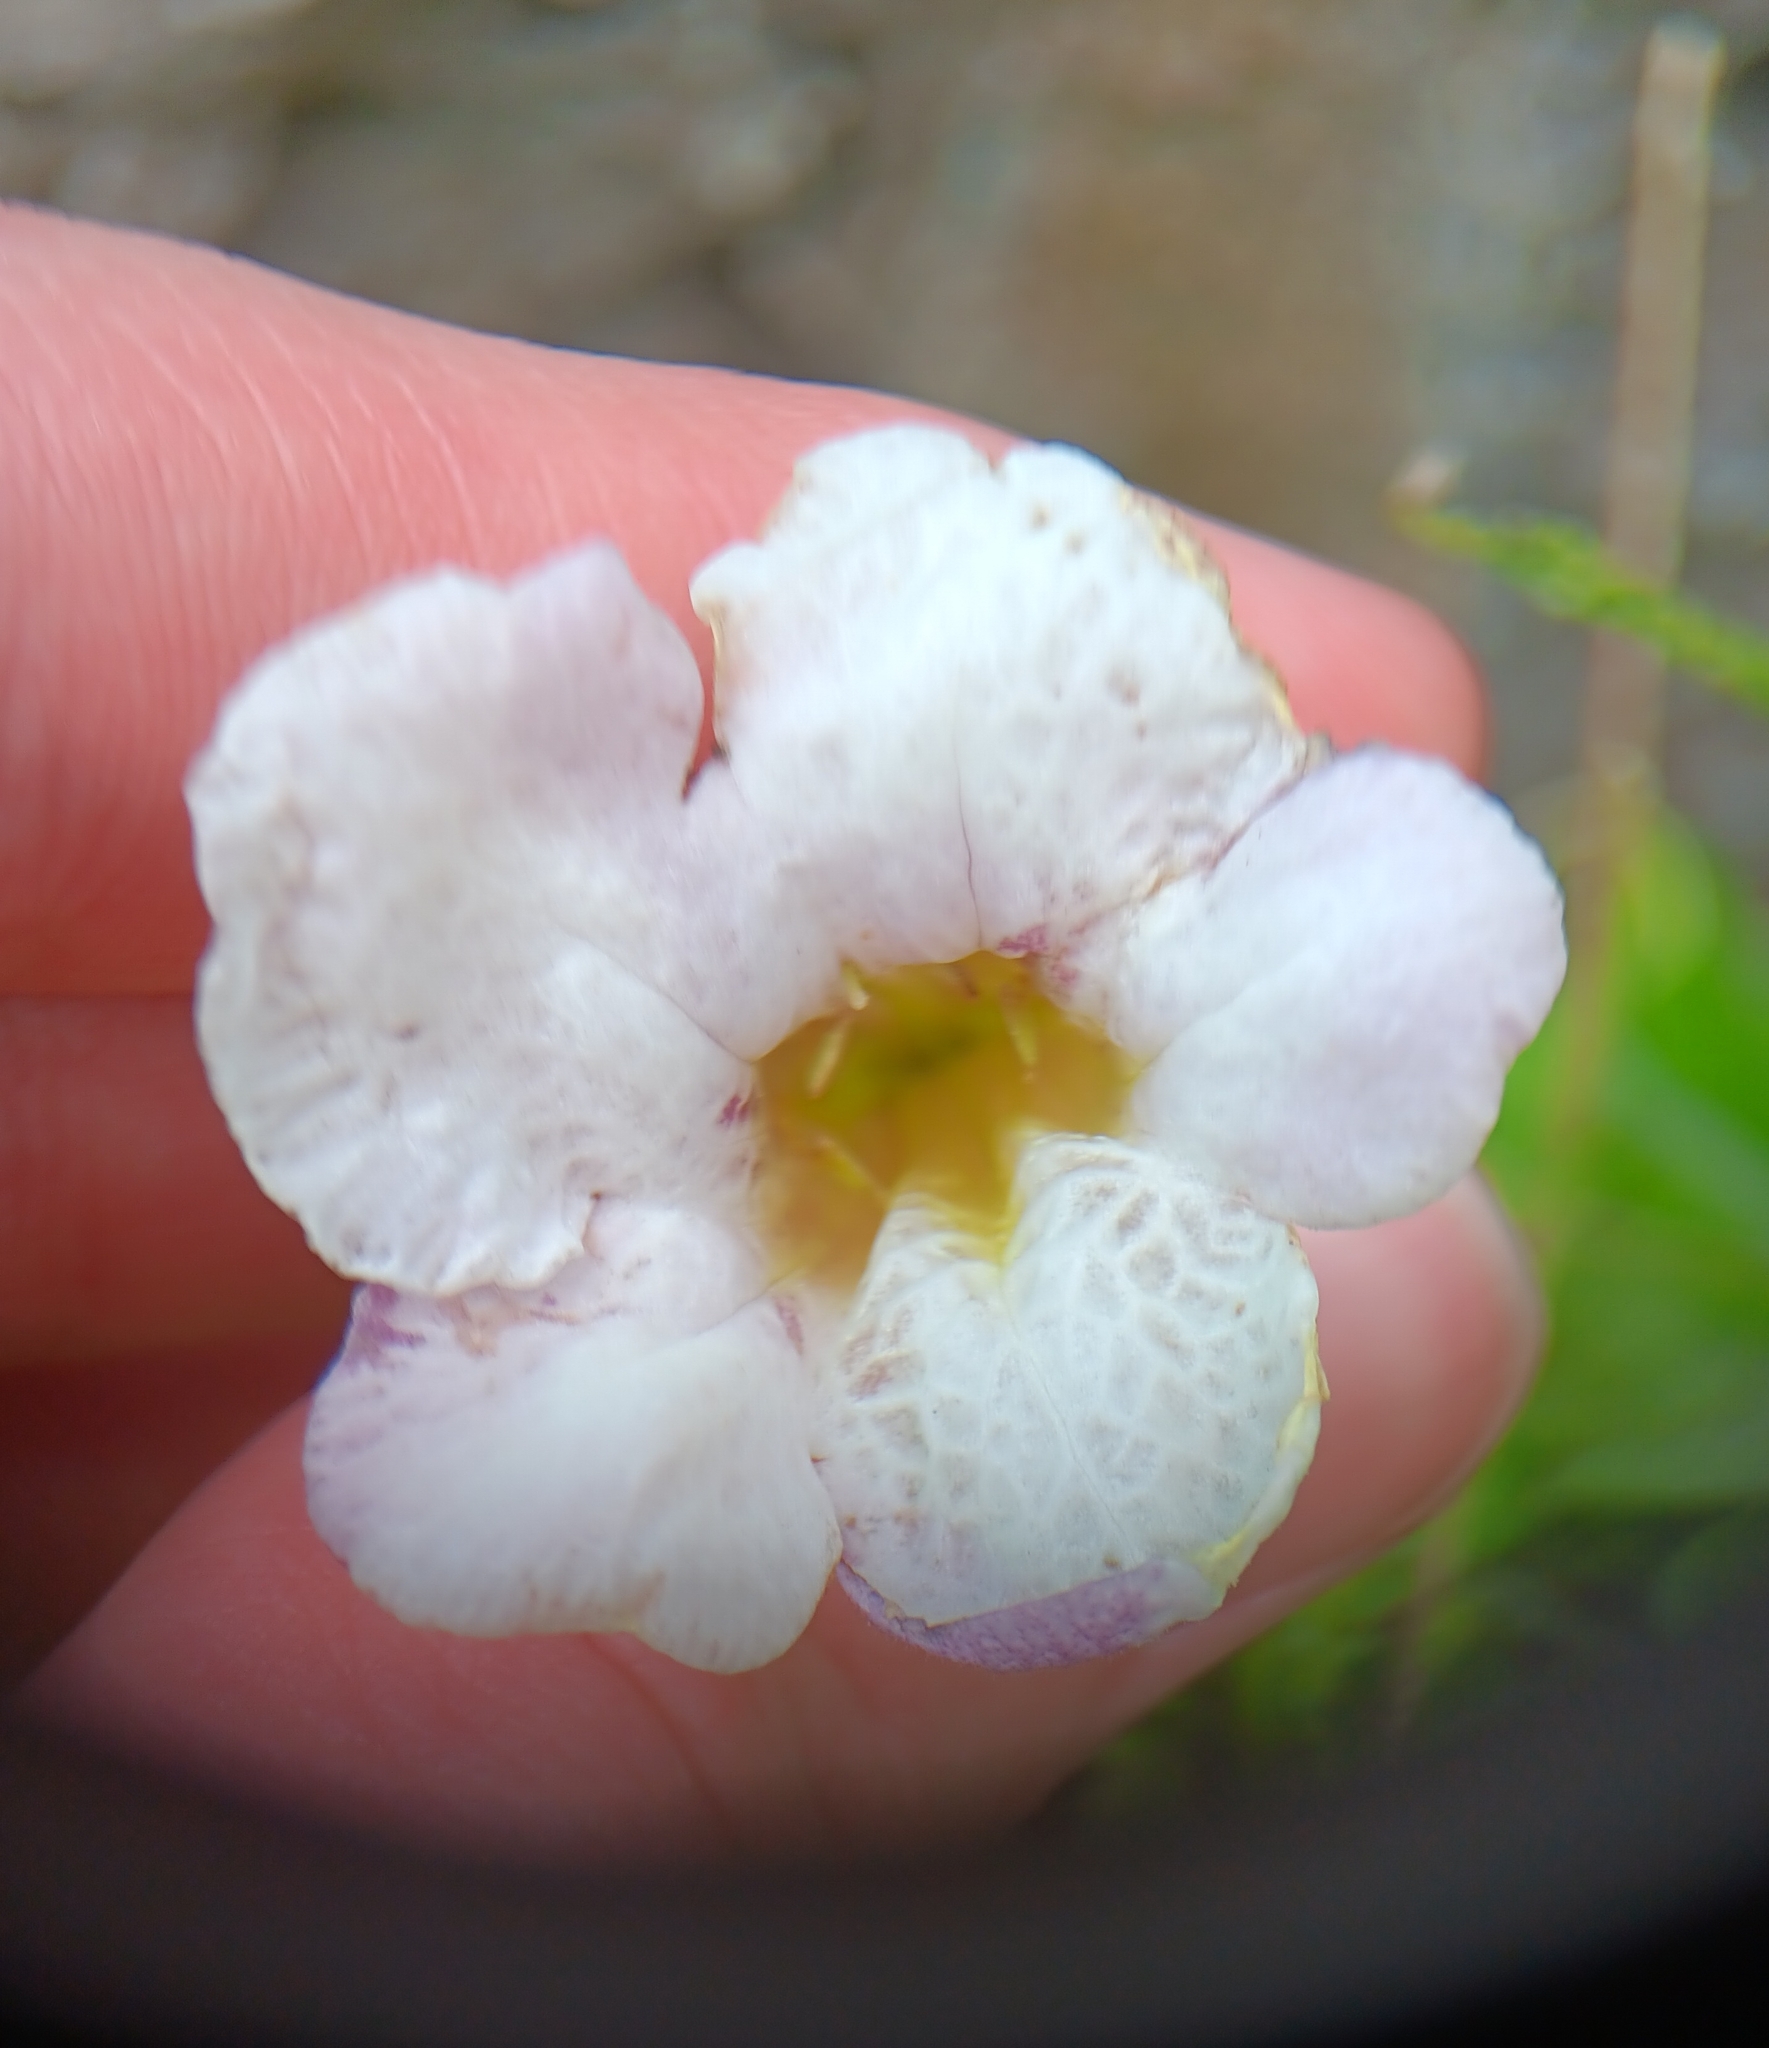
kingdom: Plantae
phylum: Tracheophyta
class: Magnoliopsida
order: Lamiales
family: Acanthaceae
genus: Asystasia
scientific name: Asystasia gangetica
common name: Chinese violet
